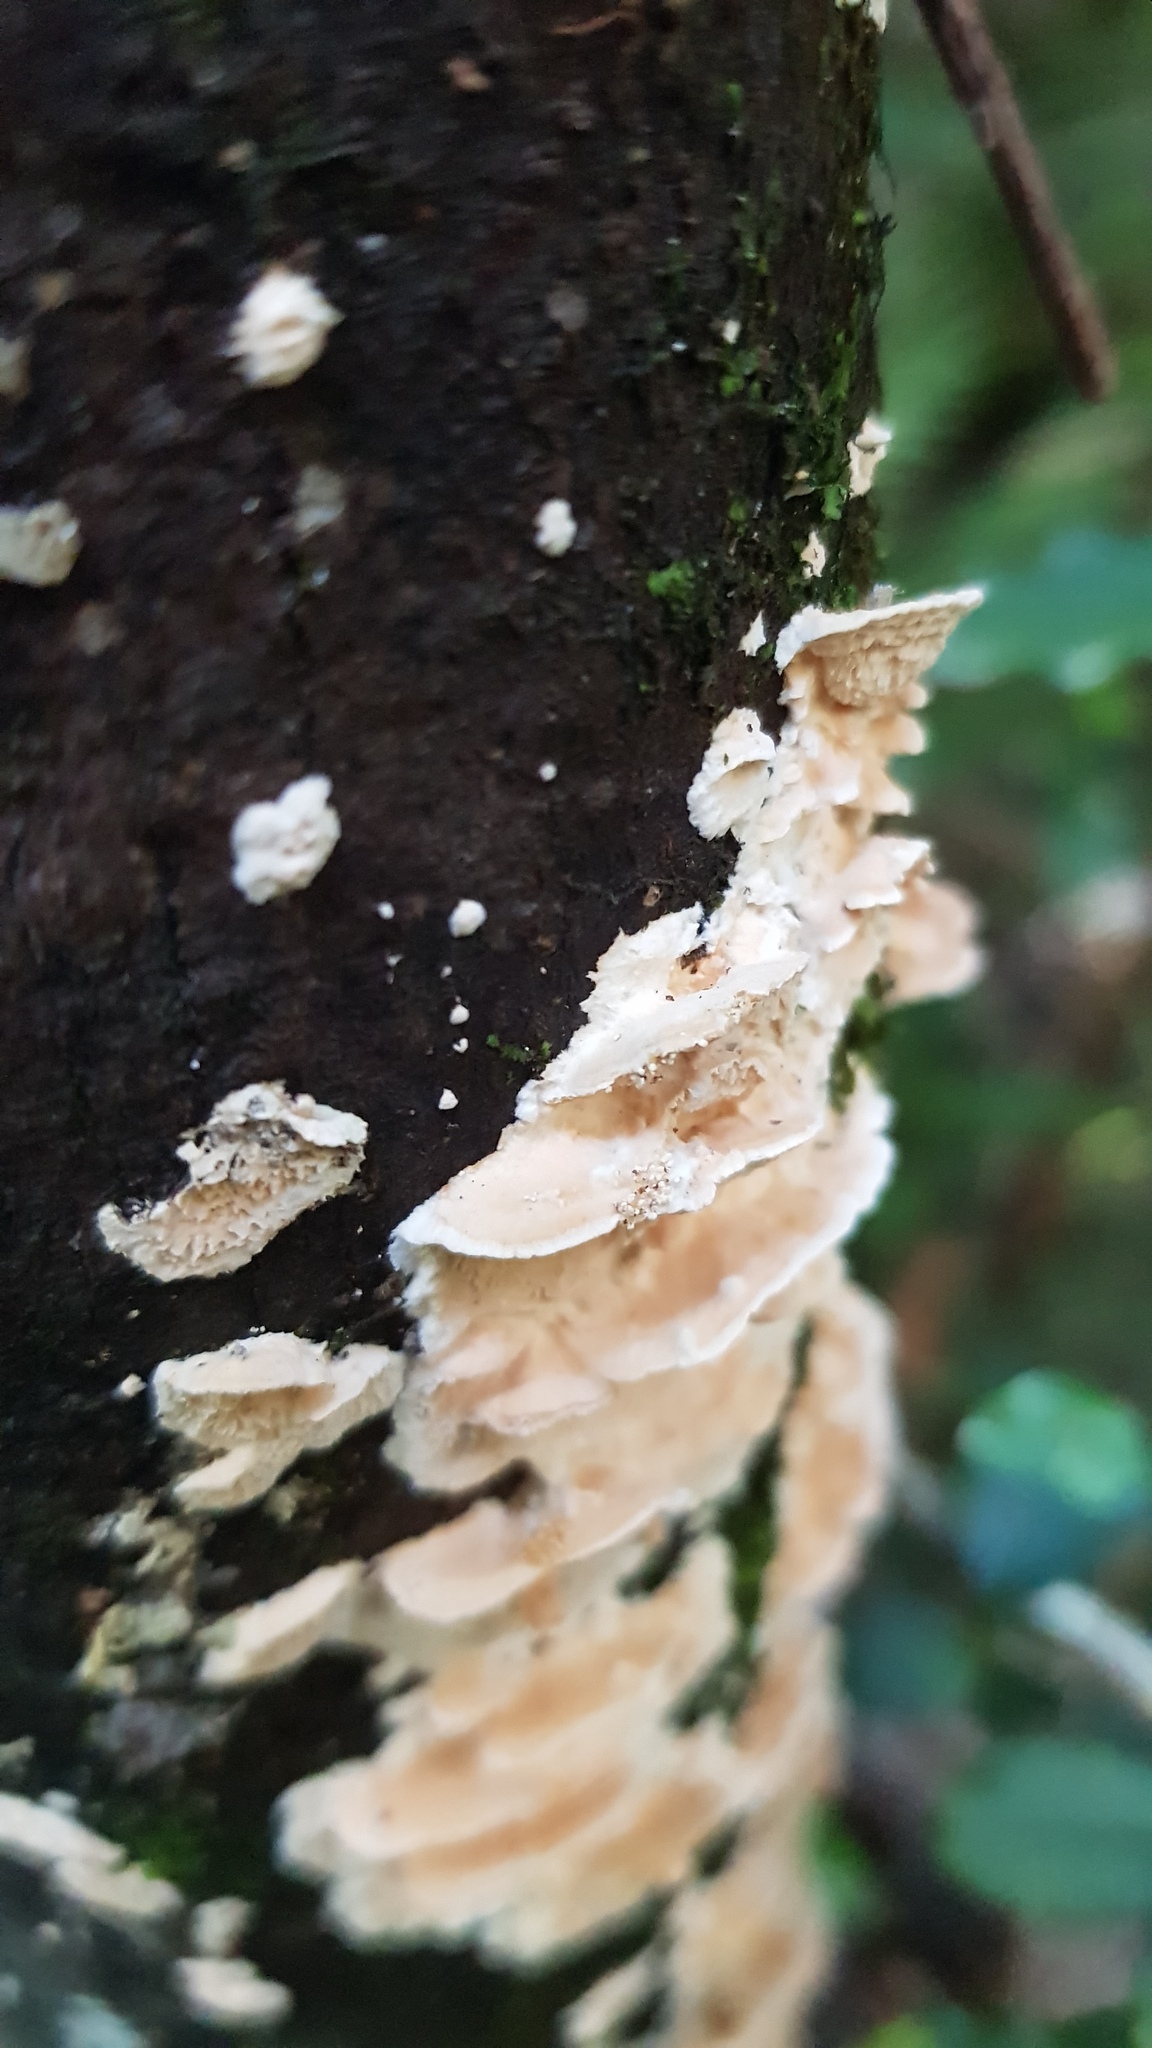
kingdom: Fungi
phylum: Basidiomycota
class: Agaricomycetes
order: Polyporales
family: Cerrenaceae
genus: Cerrena
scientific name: Cerrena zonata
